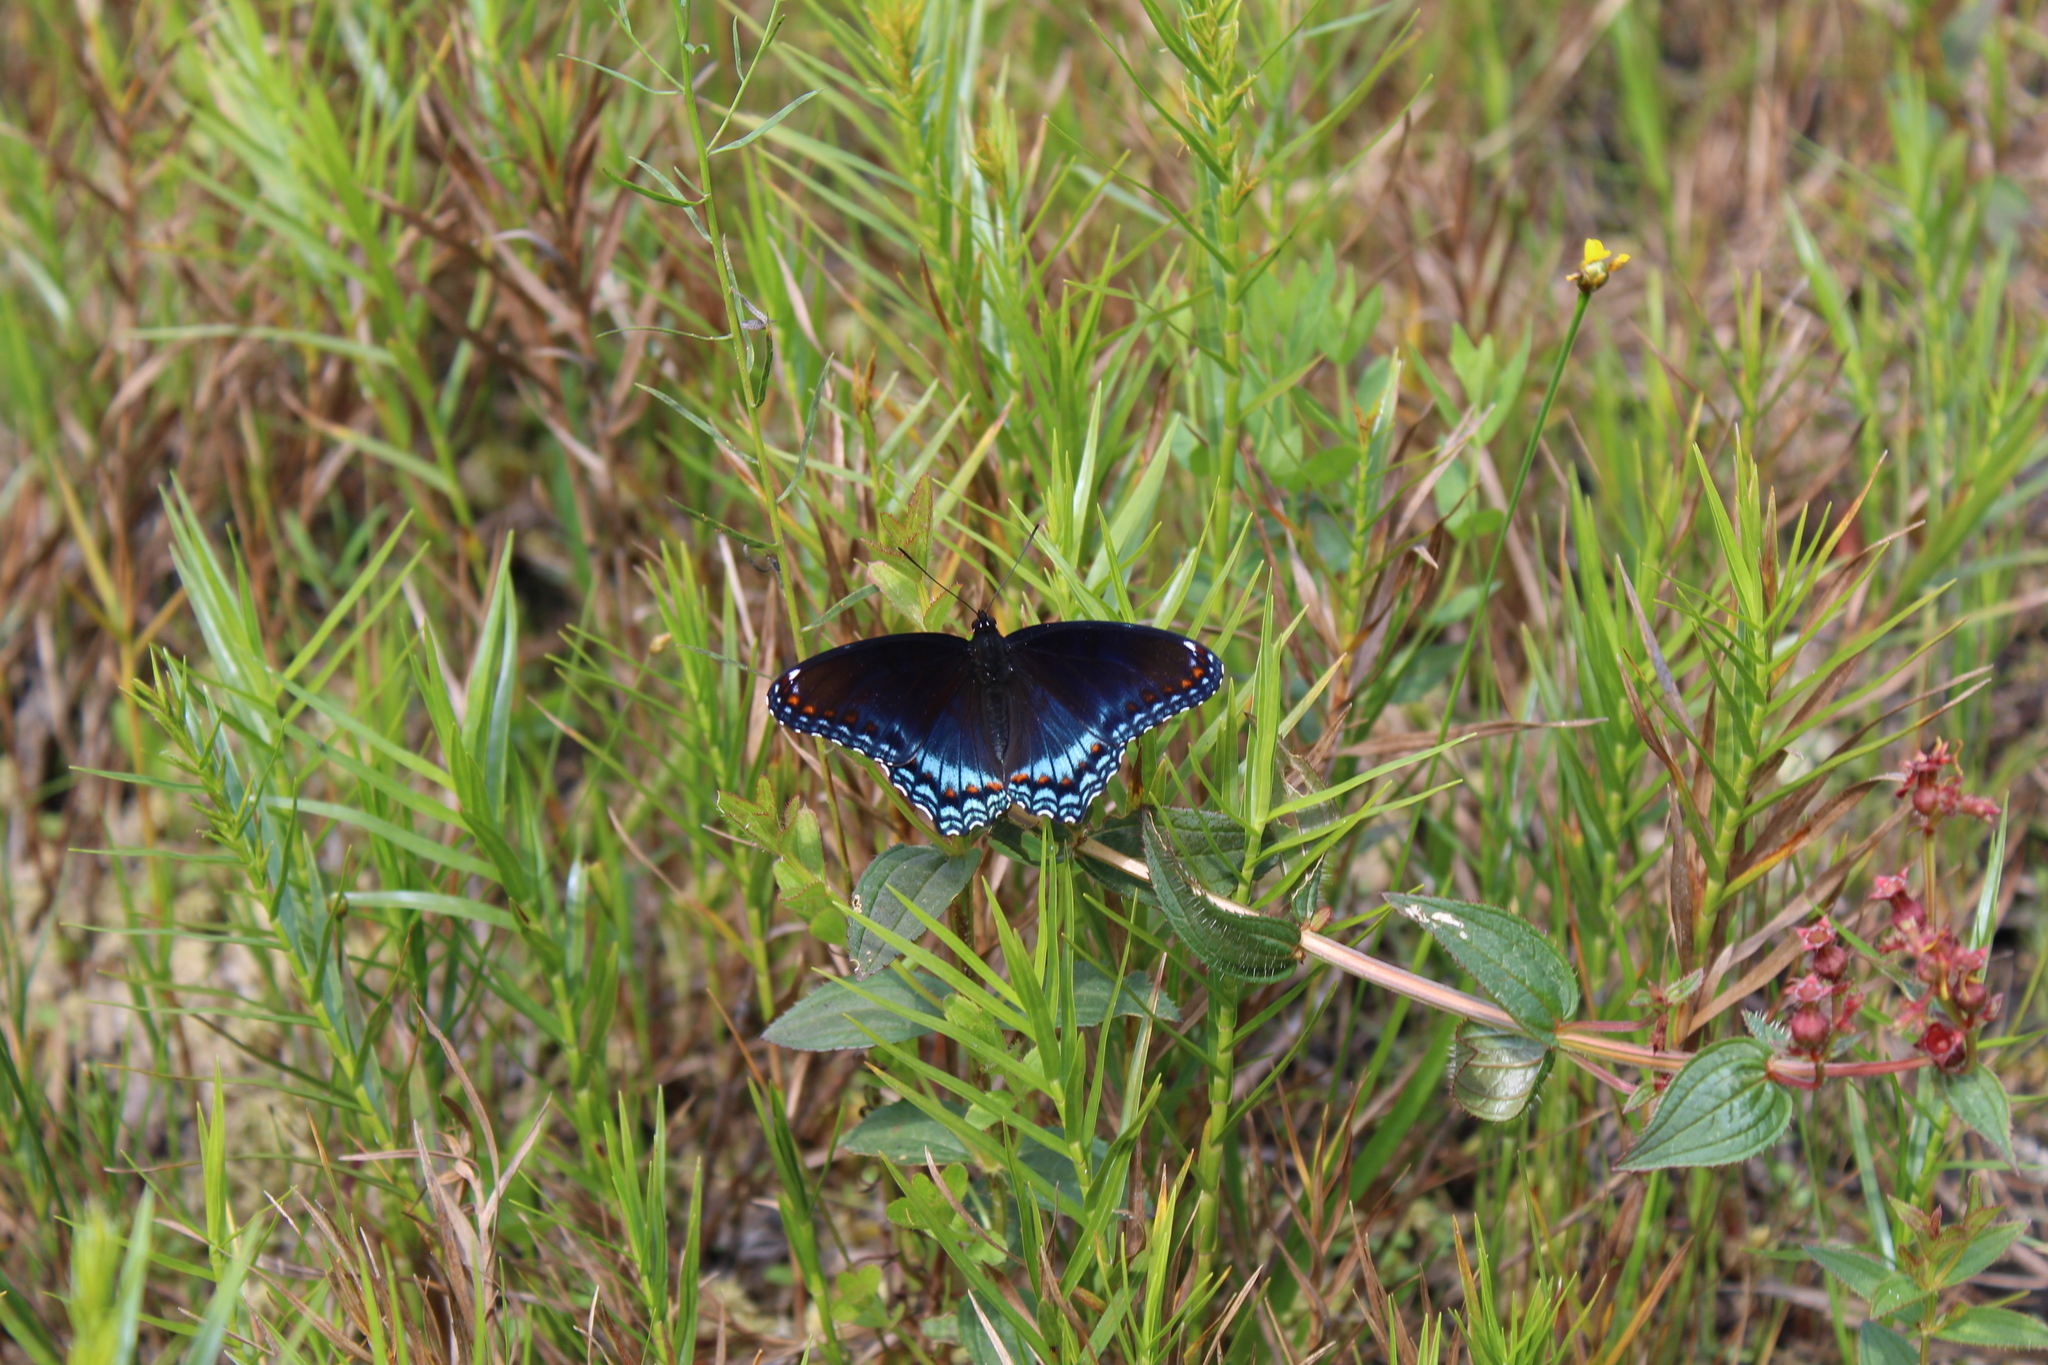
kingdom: Animalia
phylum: Arthropoda
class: Insecta
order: Lepidoptera
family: Nymphalidae
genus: Limenitis
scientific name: Limenitis arthemis
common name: Red-spotted admiral
